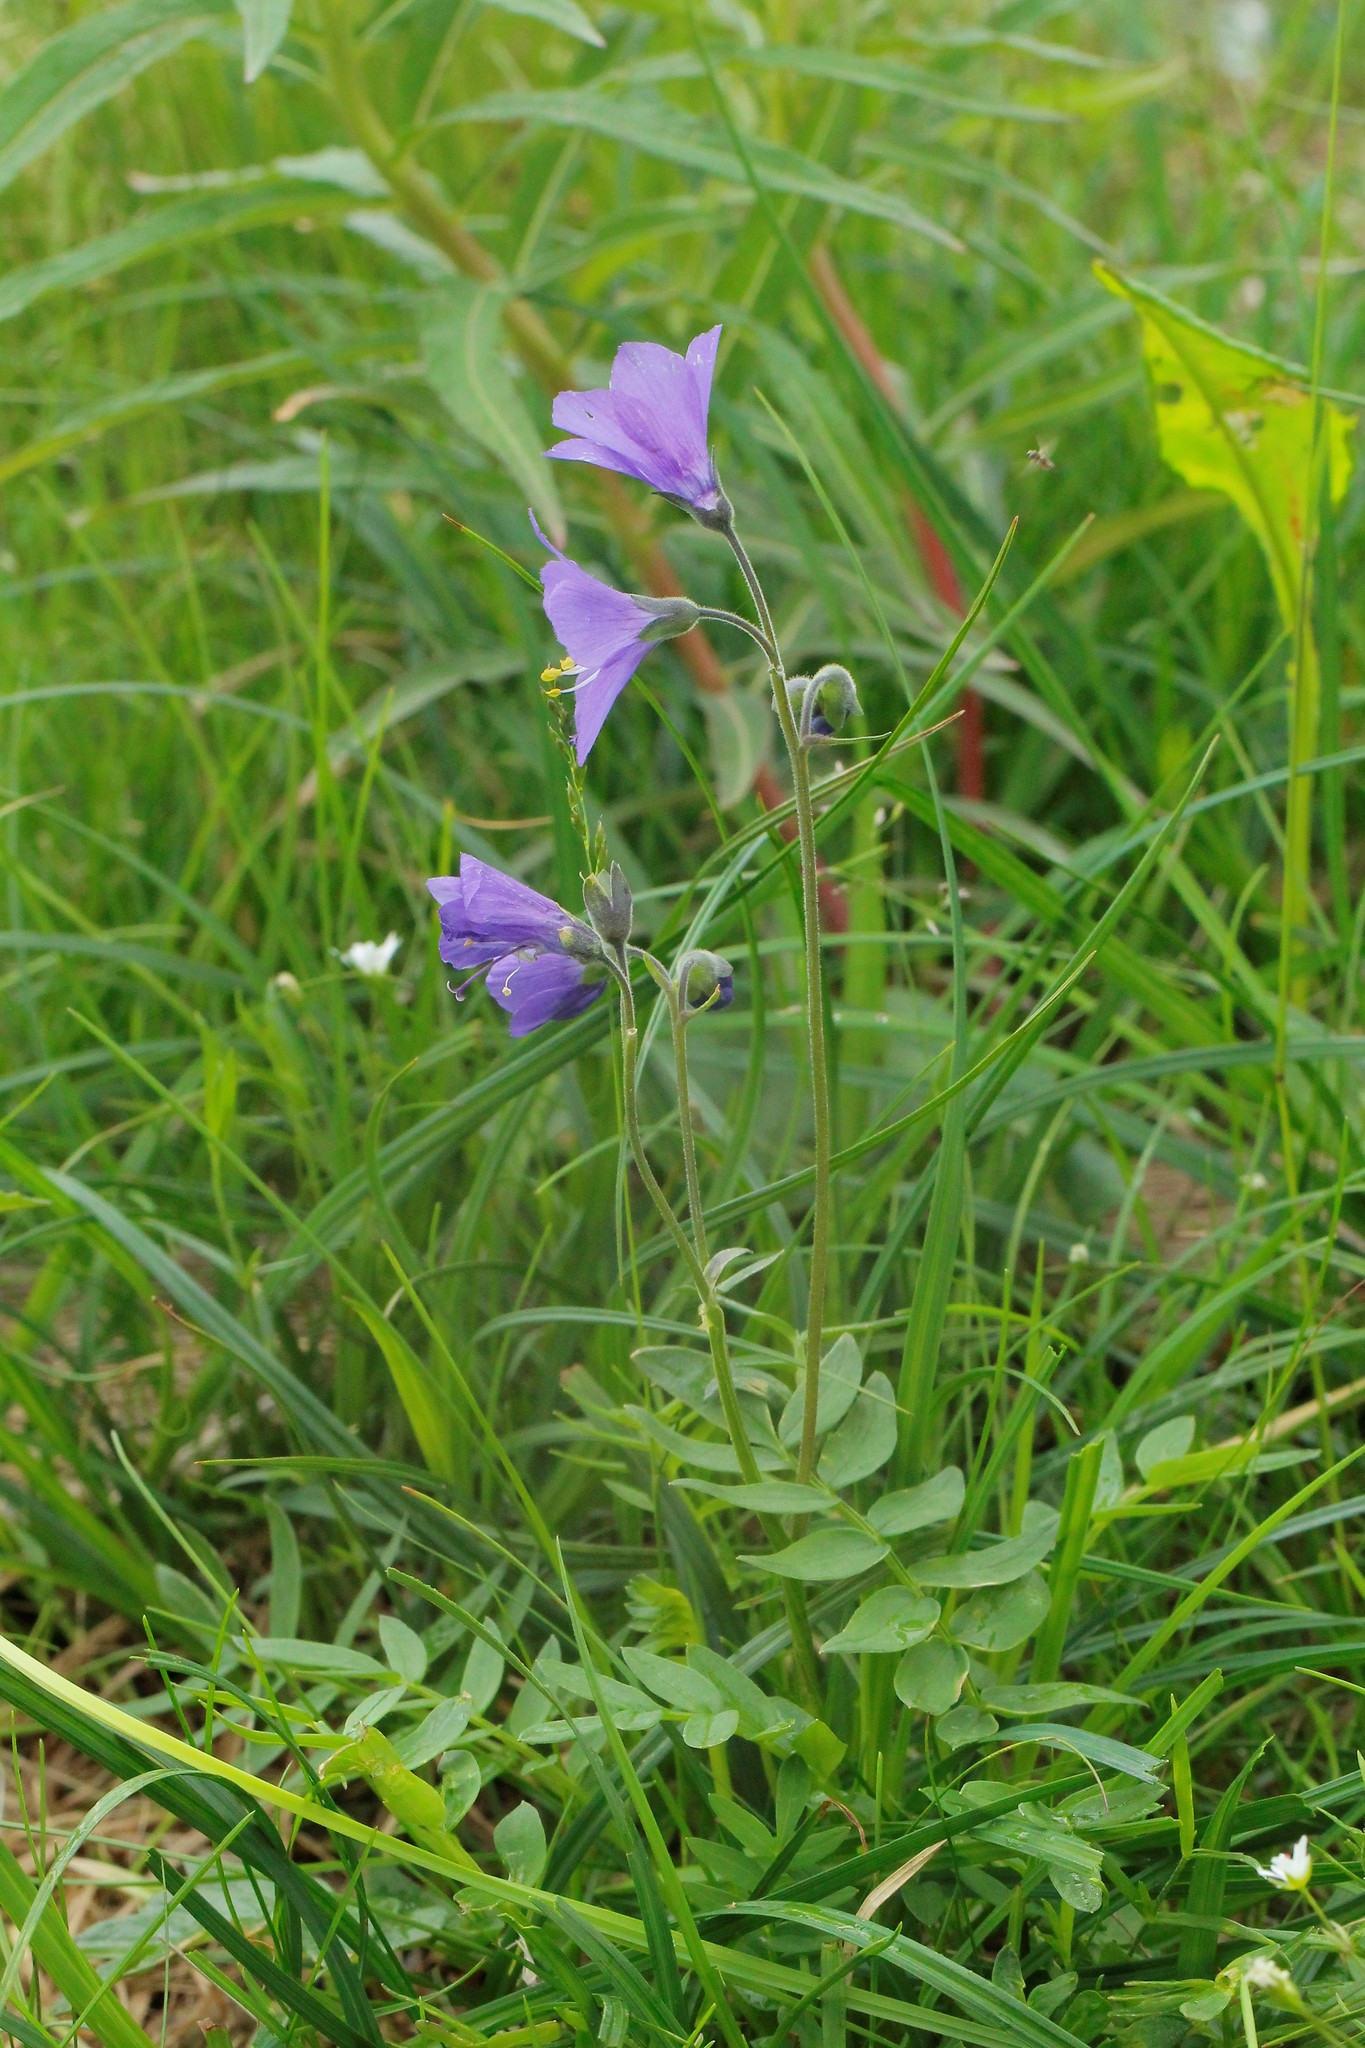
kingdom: Plantae
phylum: Tracheophyta
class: Magnoliopsida
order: Ericales
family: Polemoniaceae
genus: Polemonium
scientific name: Polemonium acutiflorum
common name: Tall jacob's-ladder
